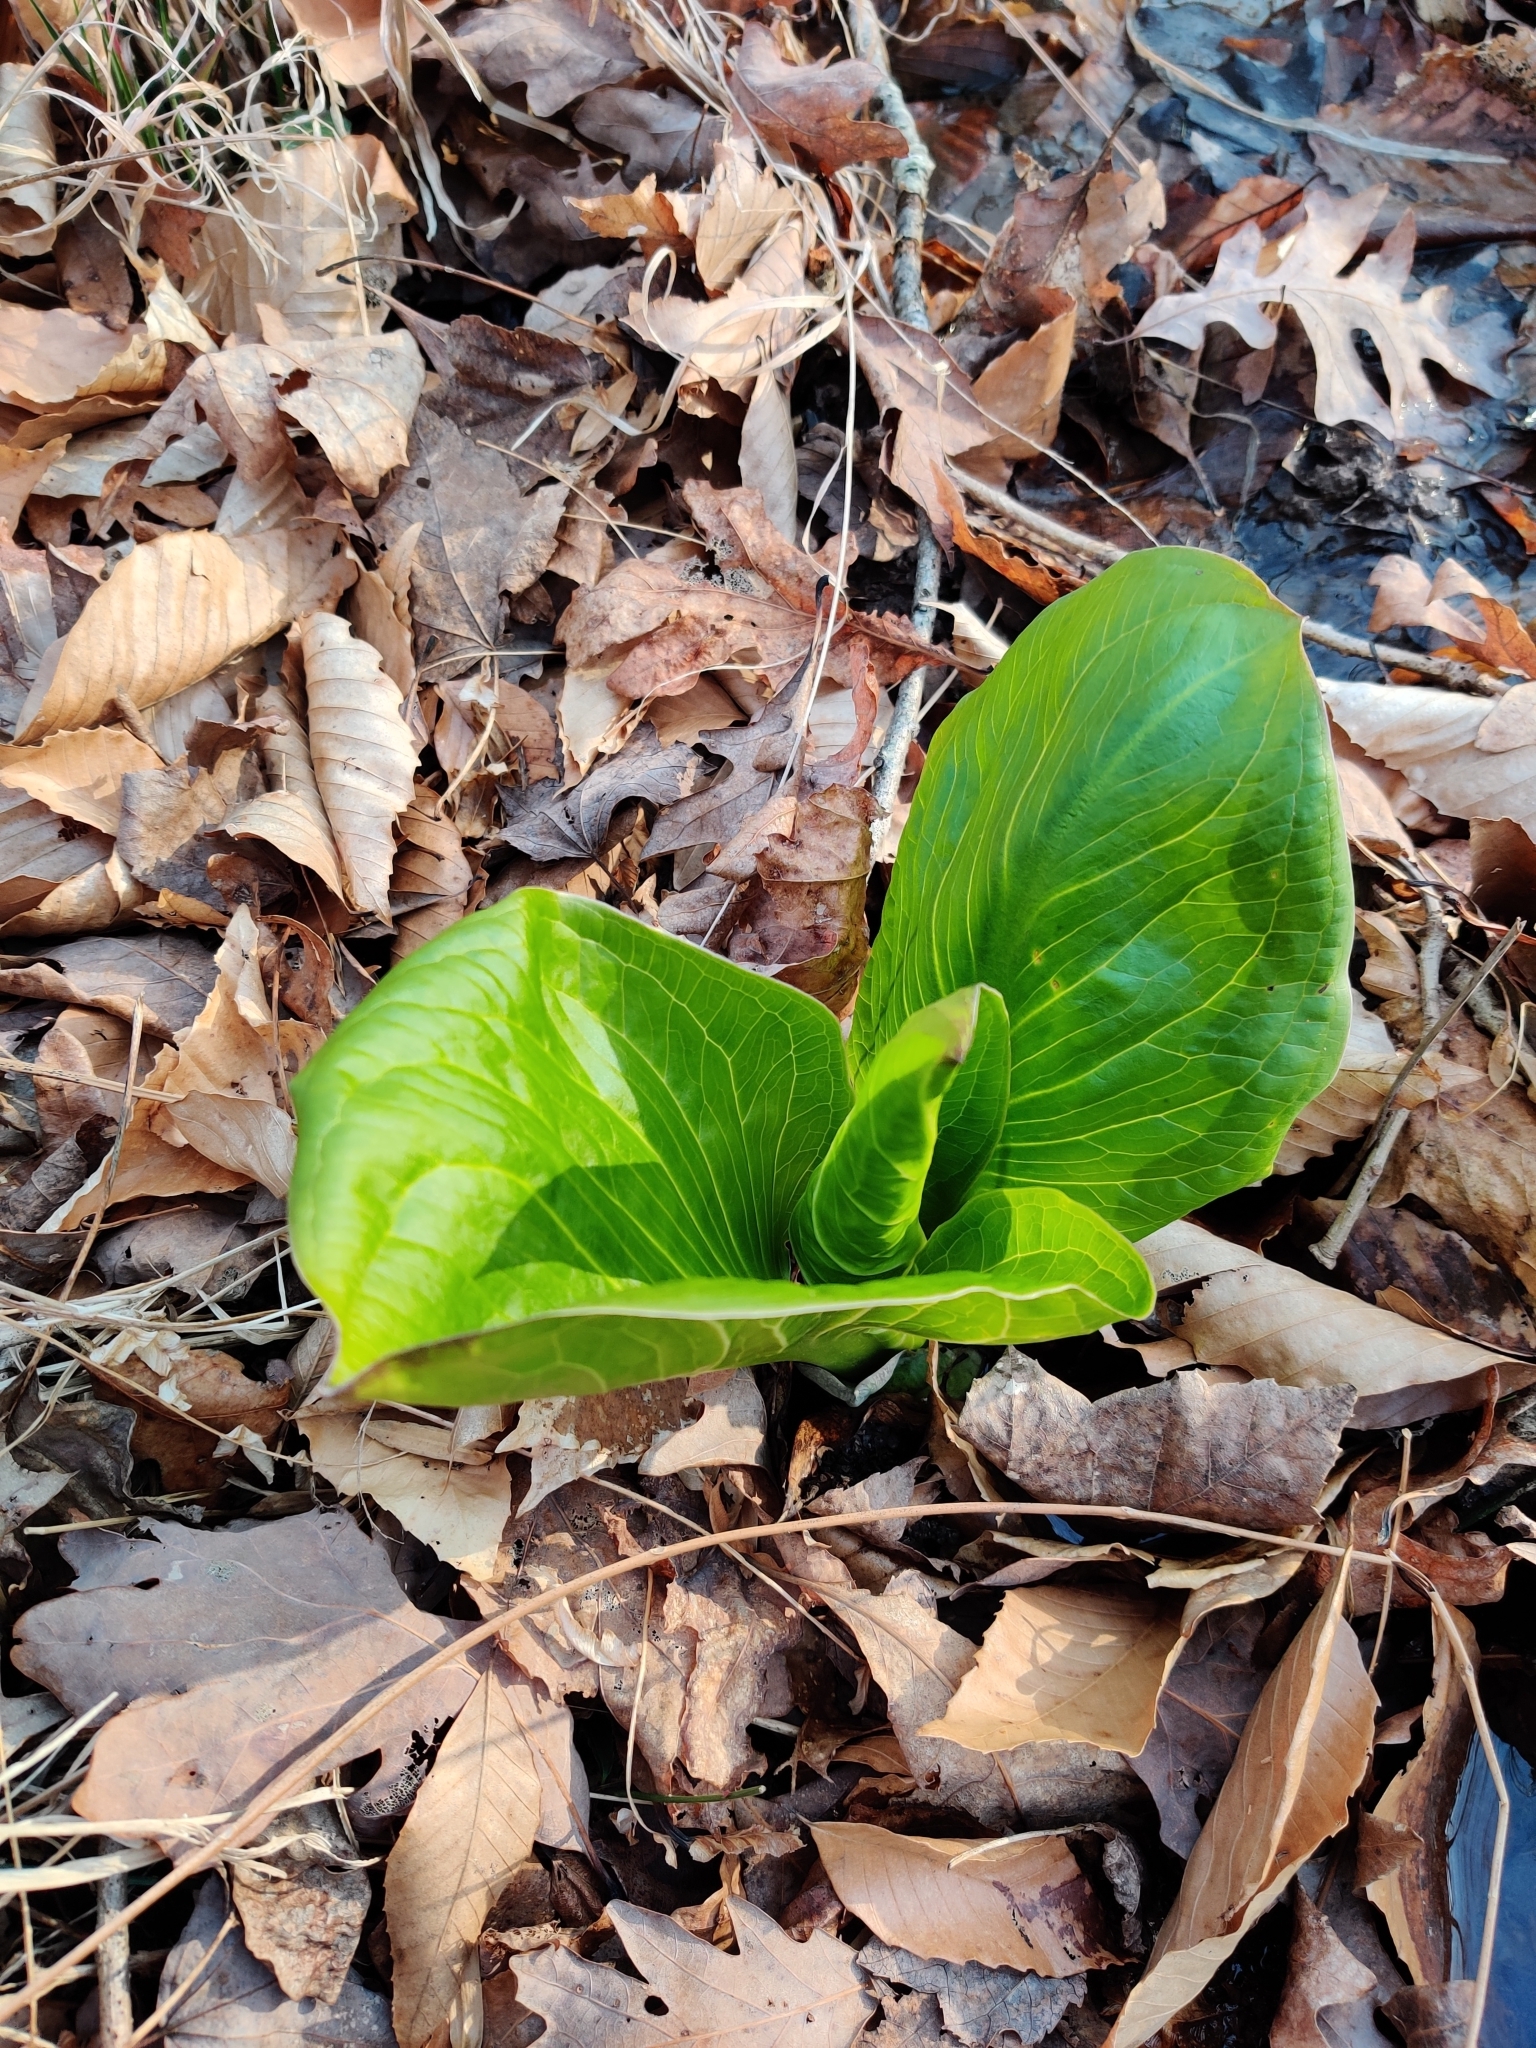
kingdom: Plantae
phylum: Tracheophyta
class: Liliopsida
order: Alismatales
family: Araceae
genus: Symplocarpus
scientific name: Symplocarpus foetidus
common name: Eastern skunk cabbage
